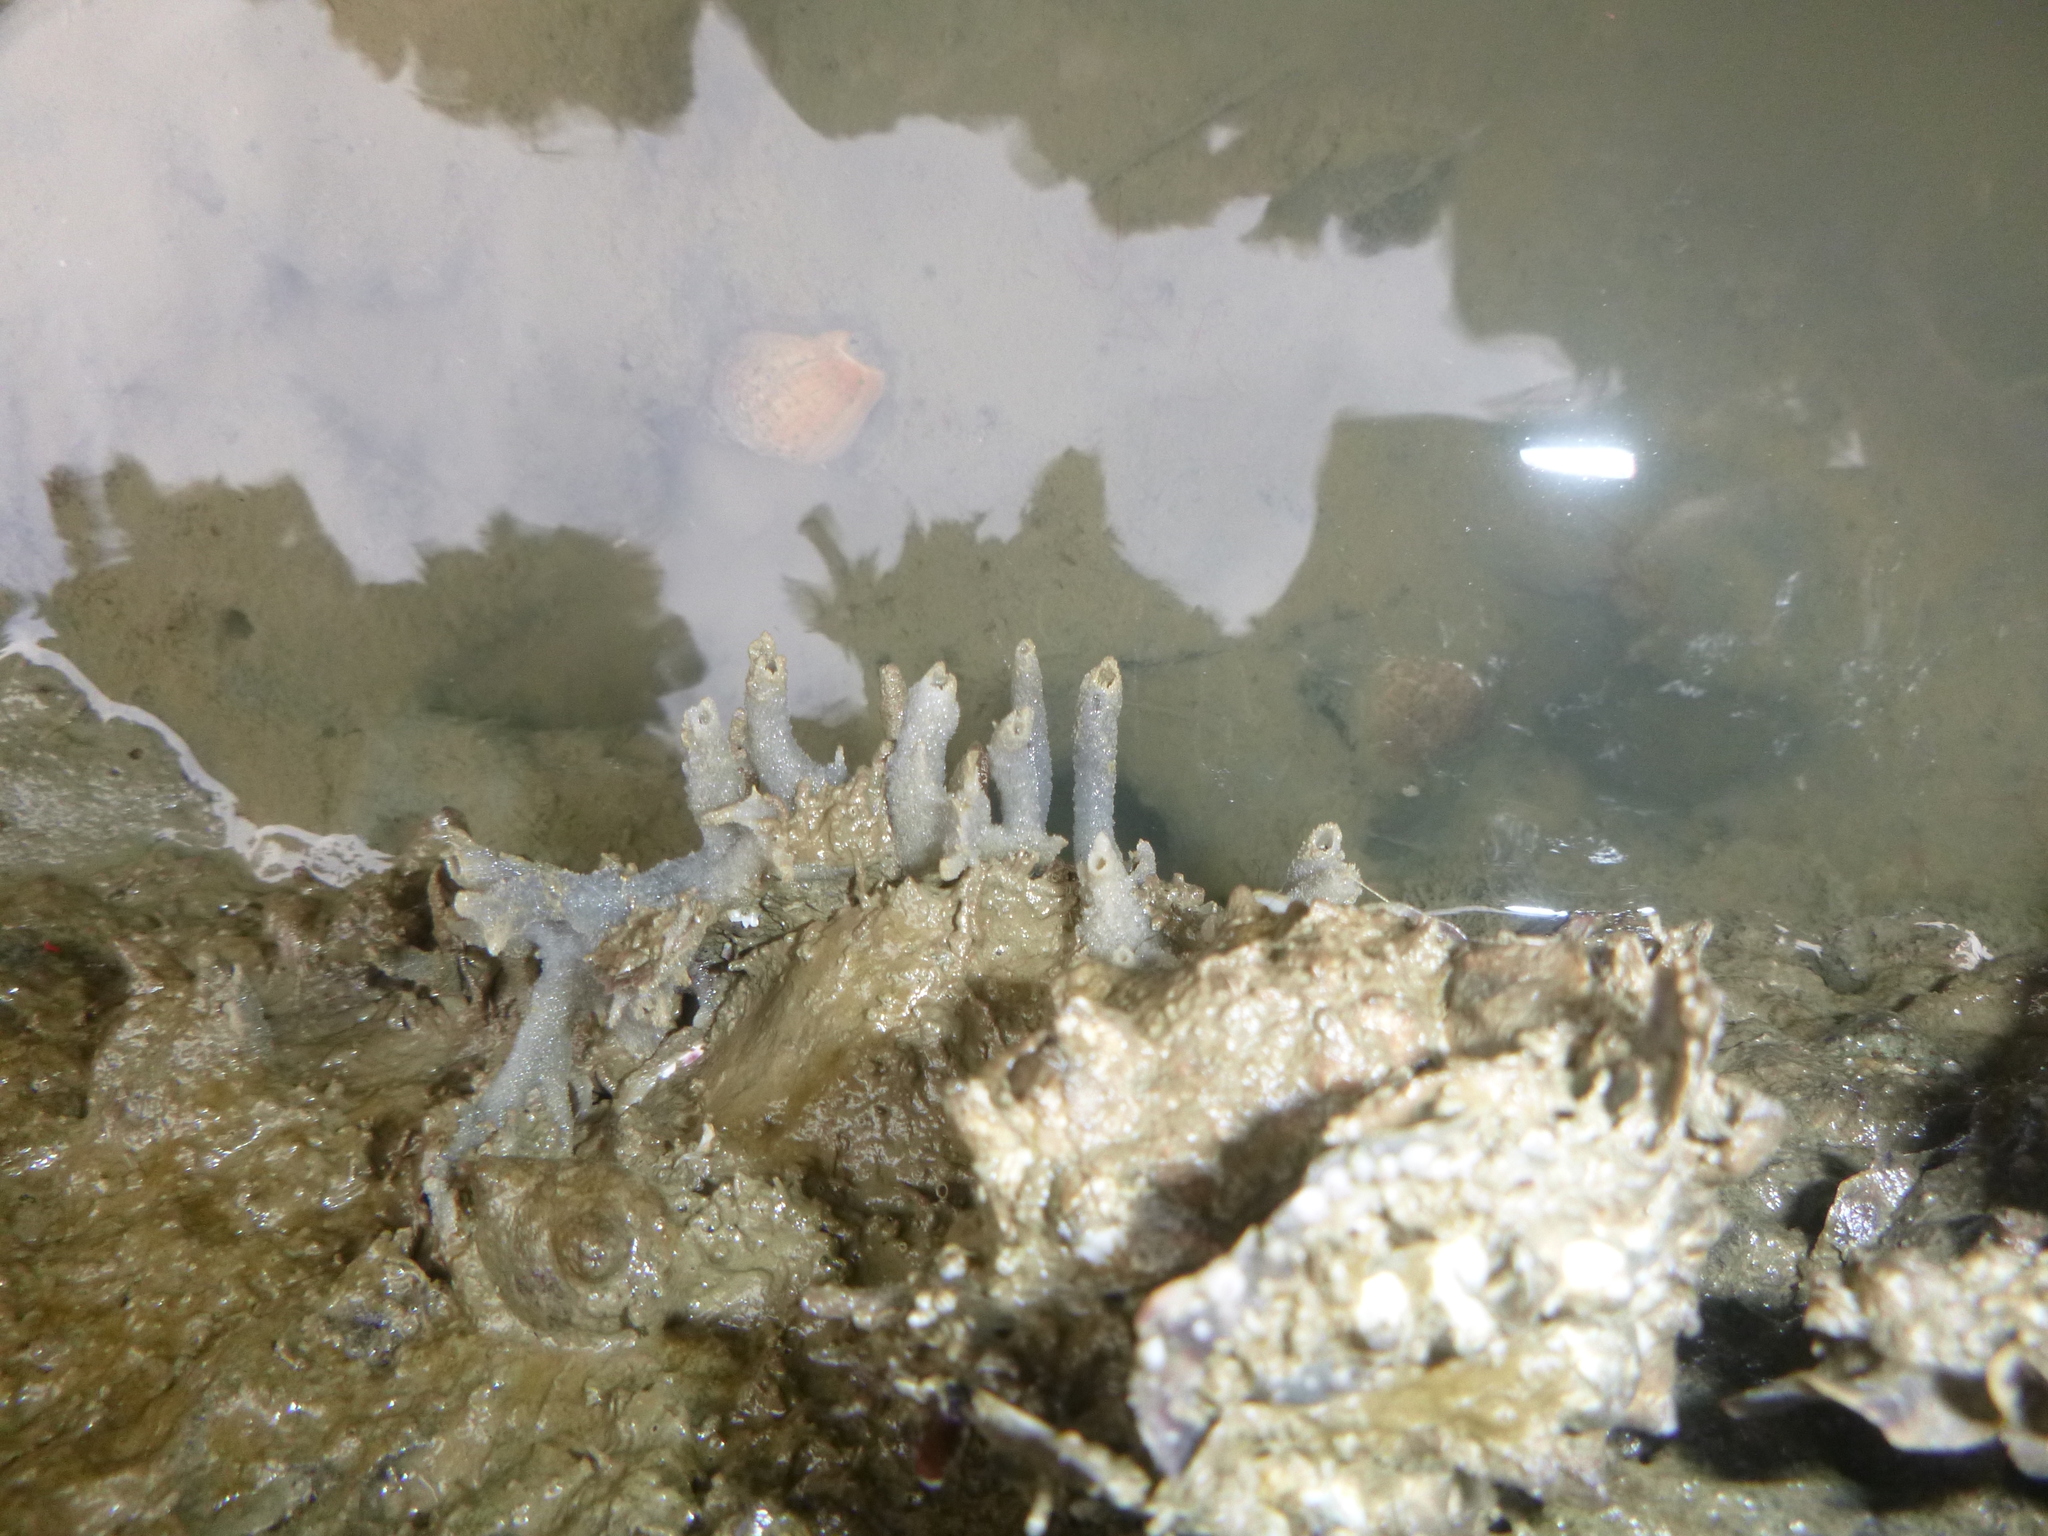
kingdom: Animalia
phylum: Porifera
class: Demospongiae
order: Haplosclerida
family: Chalinidae
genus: Haliclona
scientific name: Haliclona venustina
